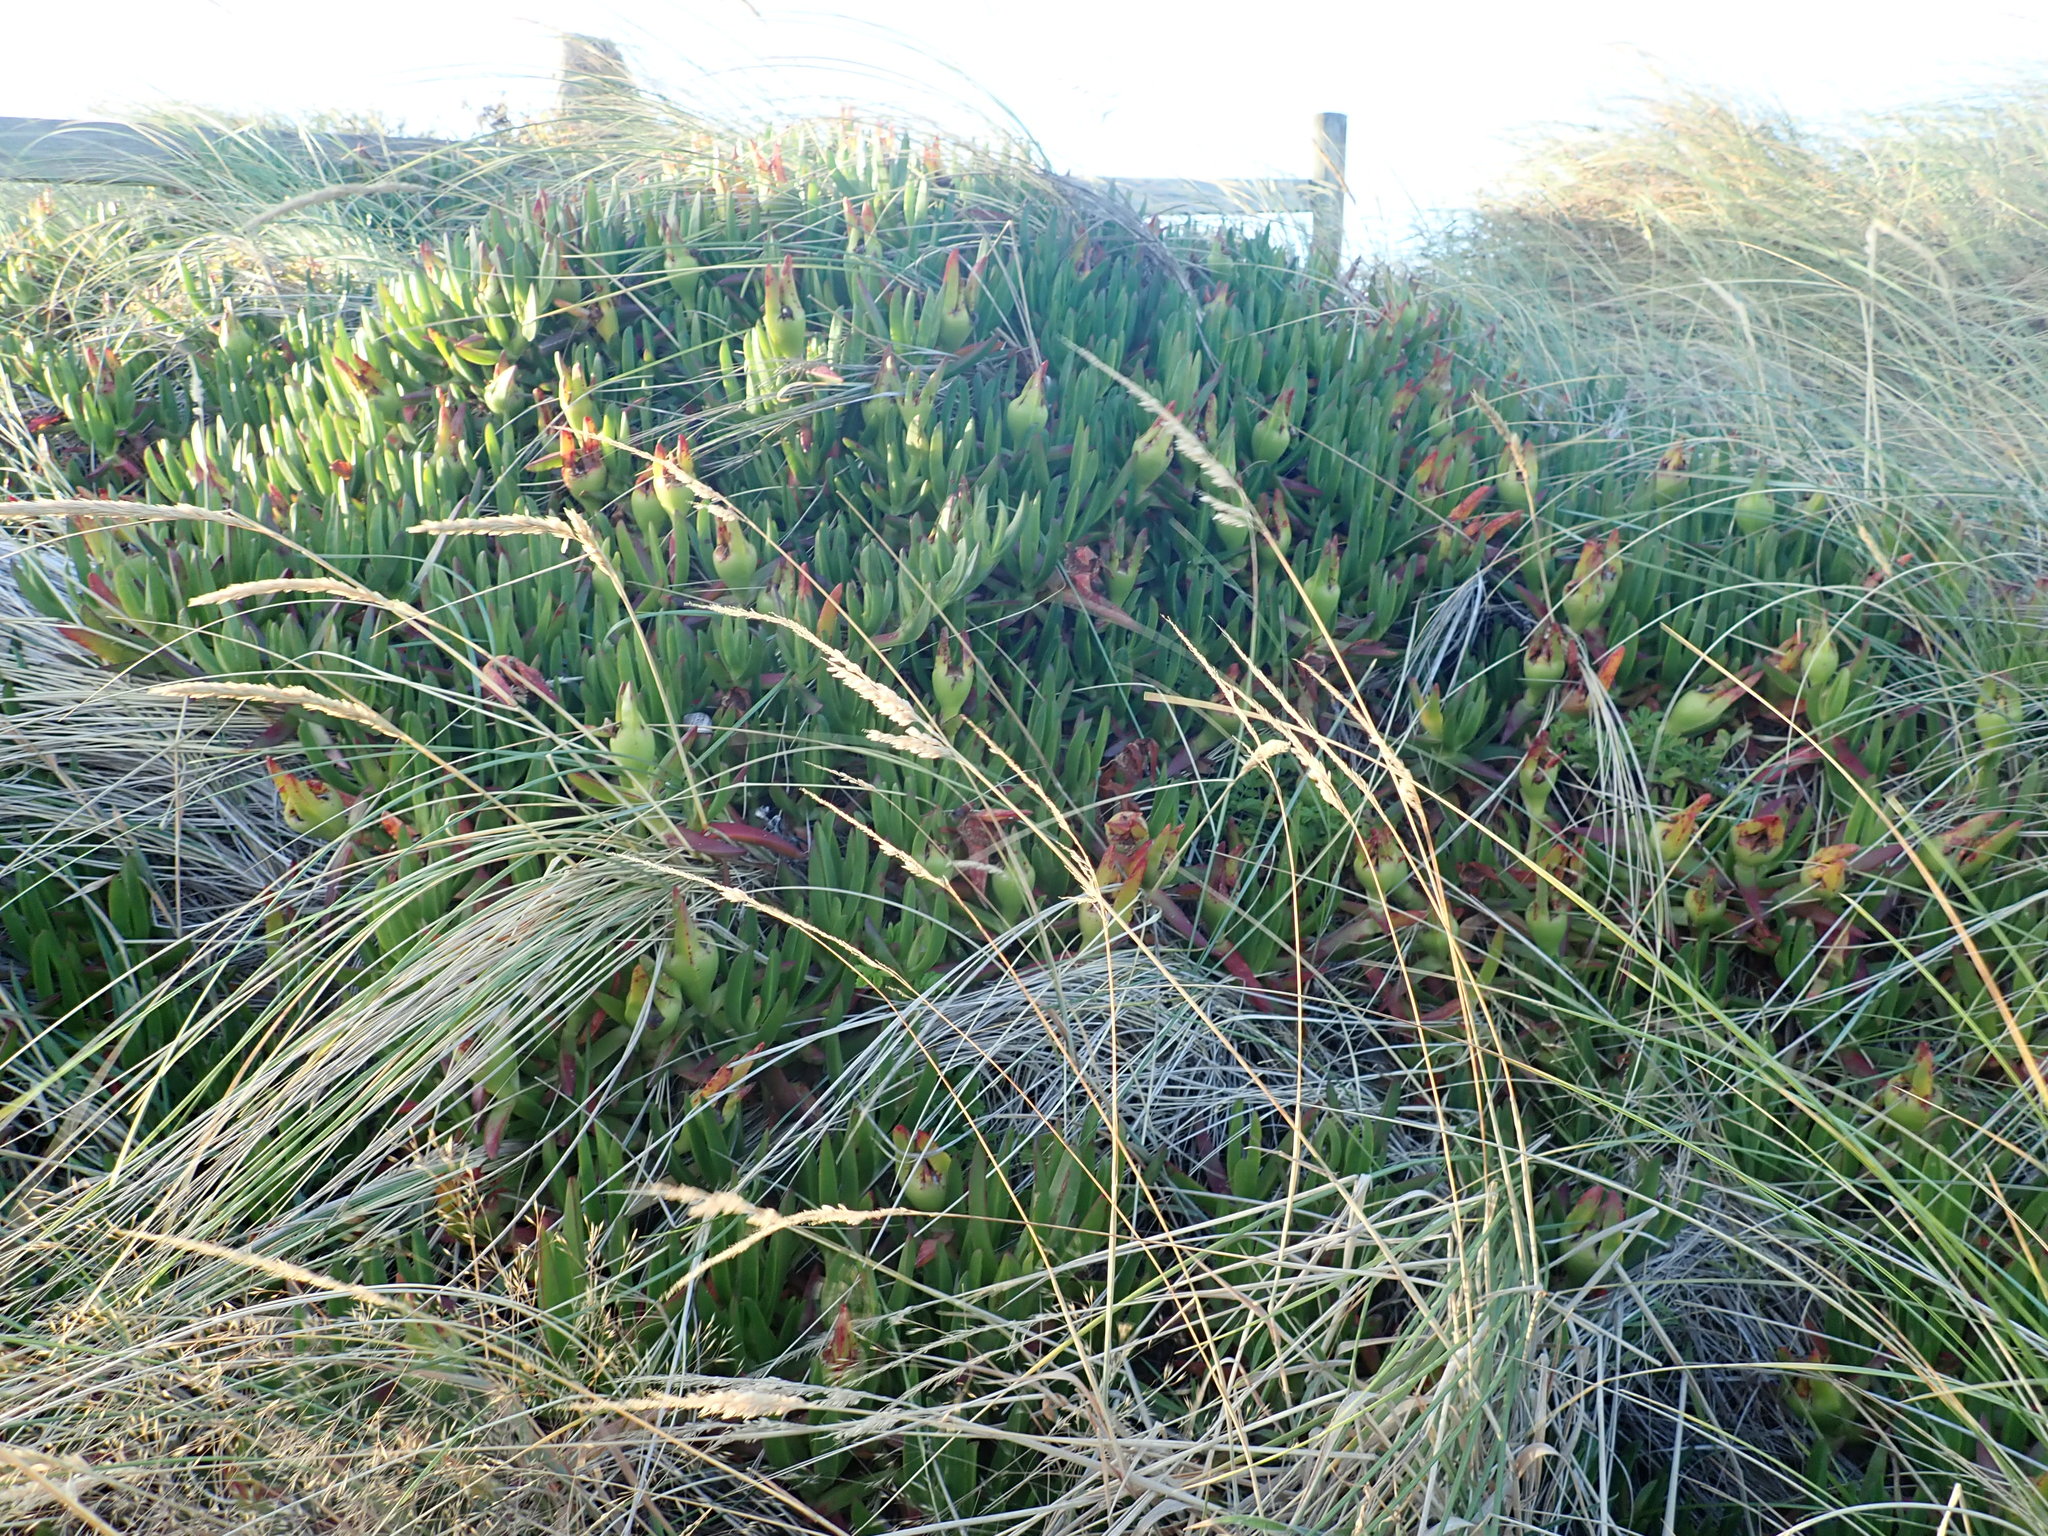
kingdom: Plantae
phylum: Tracheophyta
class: Magnoliopsida
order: Caryophyllales
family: Aizoaceae
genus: Carpobrotus
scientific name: Carpobrotus edulis
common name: Hottentot-fig
